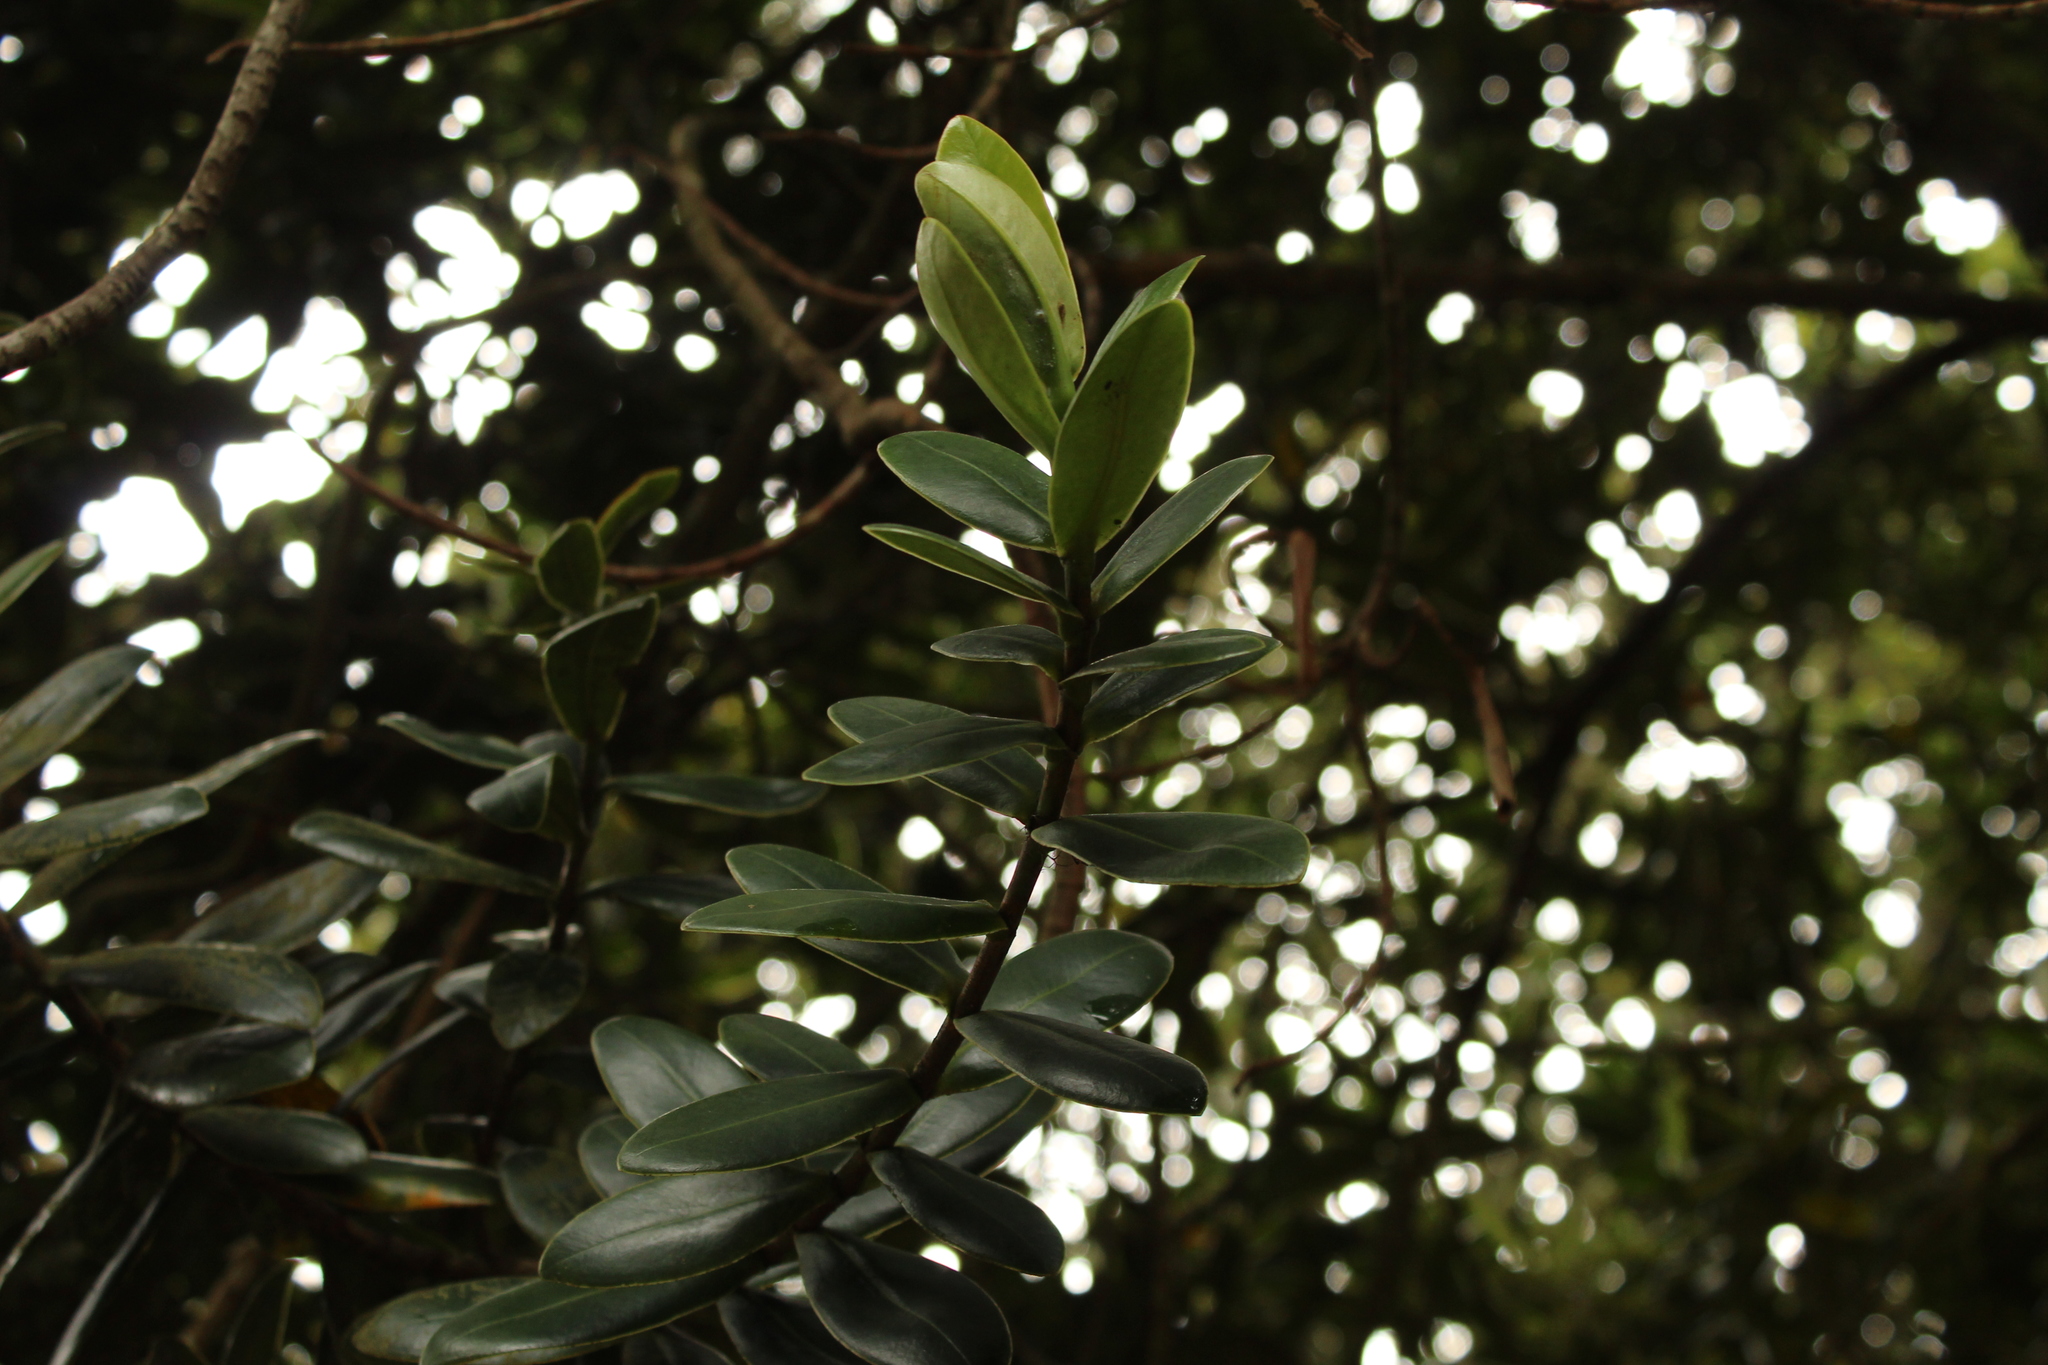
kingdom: Plantae
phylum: Tracheophyta
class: Magnoliopsida
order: Malpighiales
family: Clusiaceae
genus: Clusia
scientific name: Clusia elliptica
